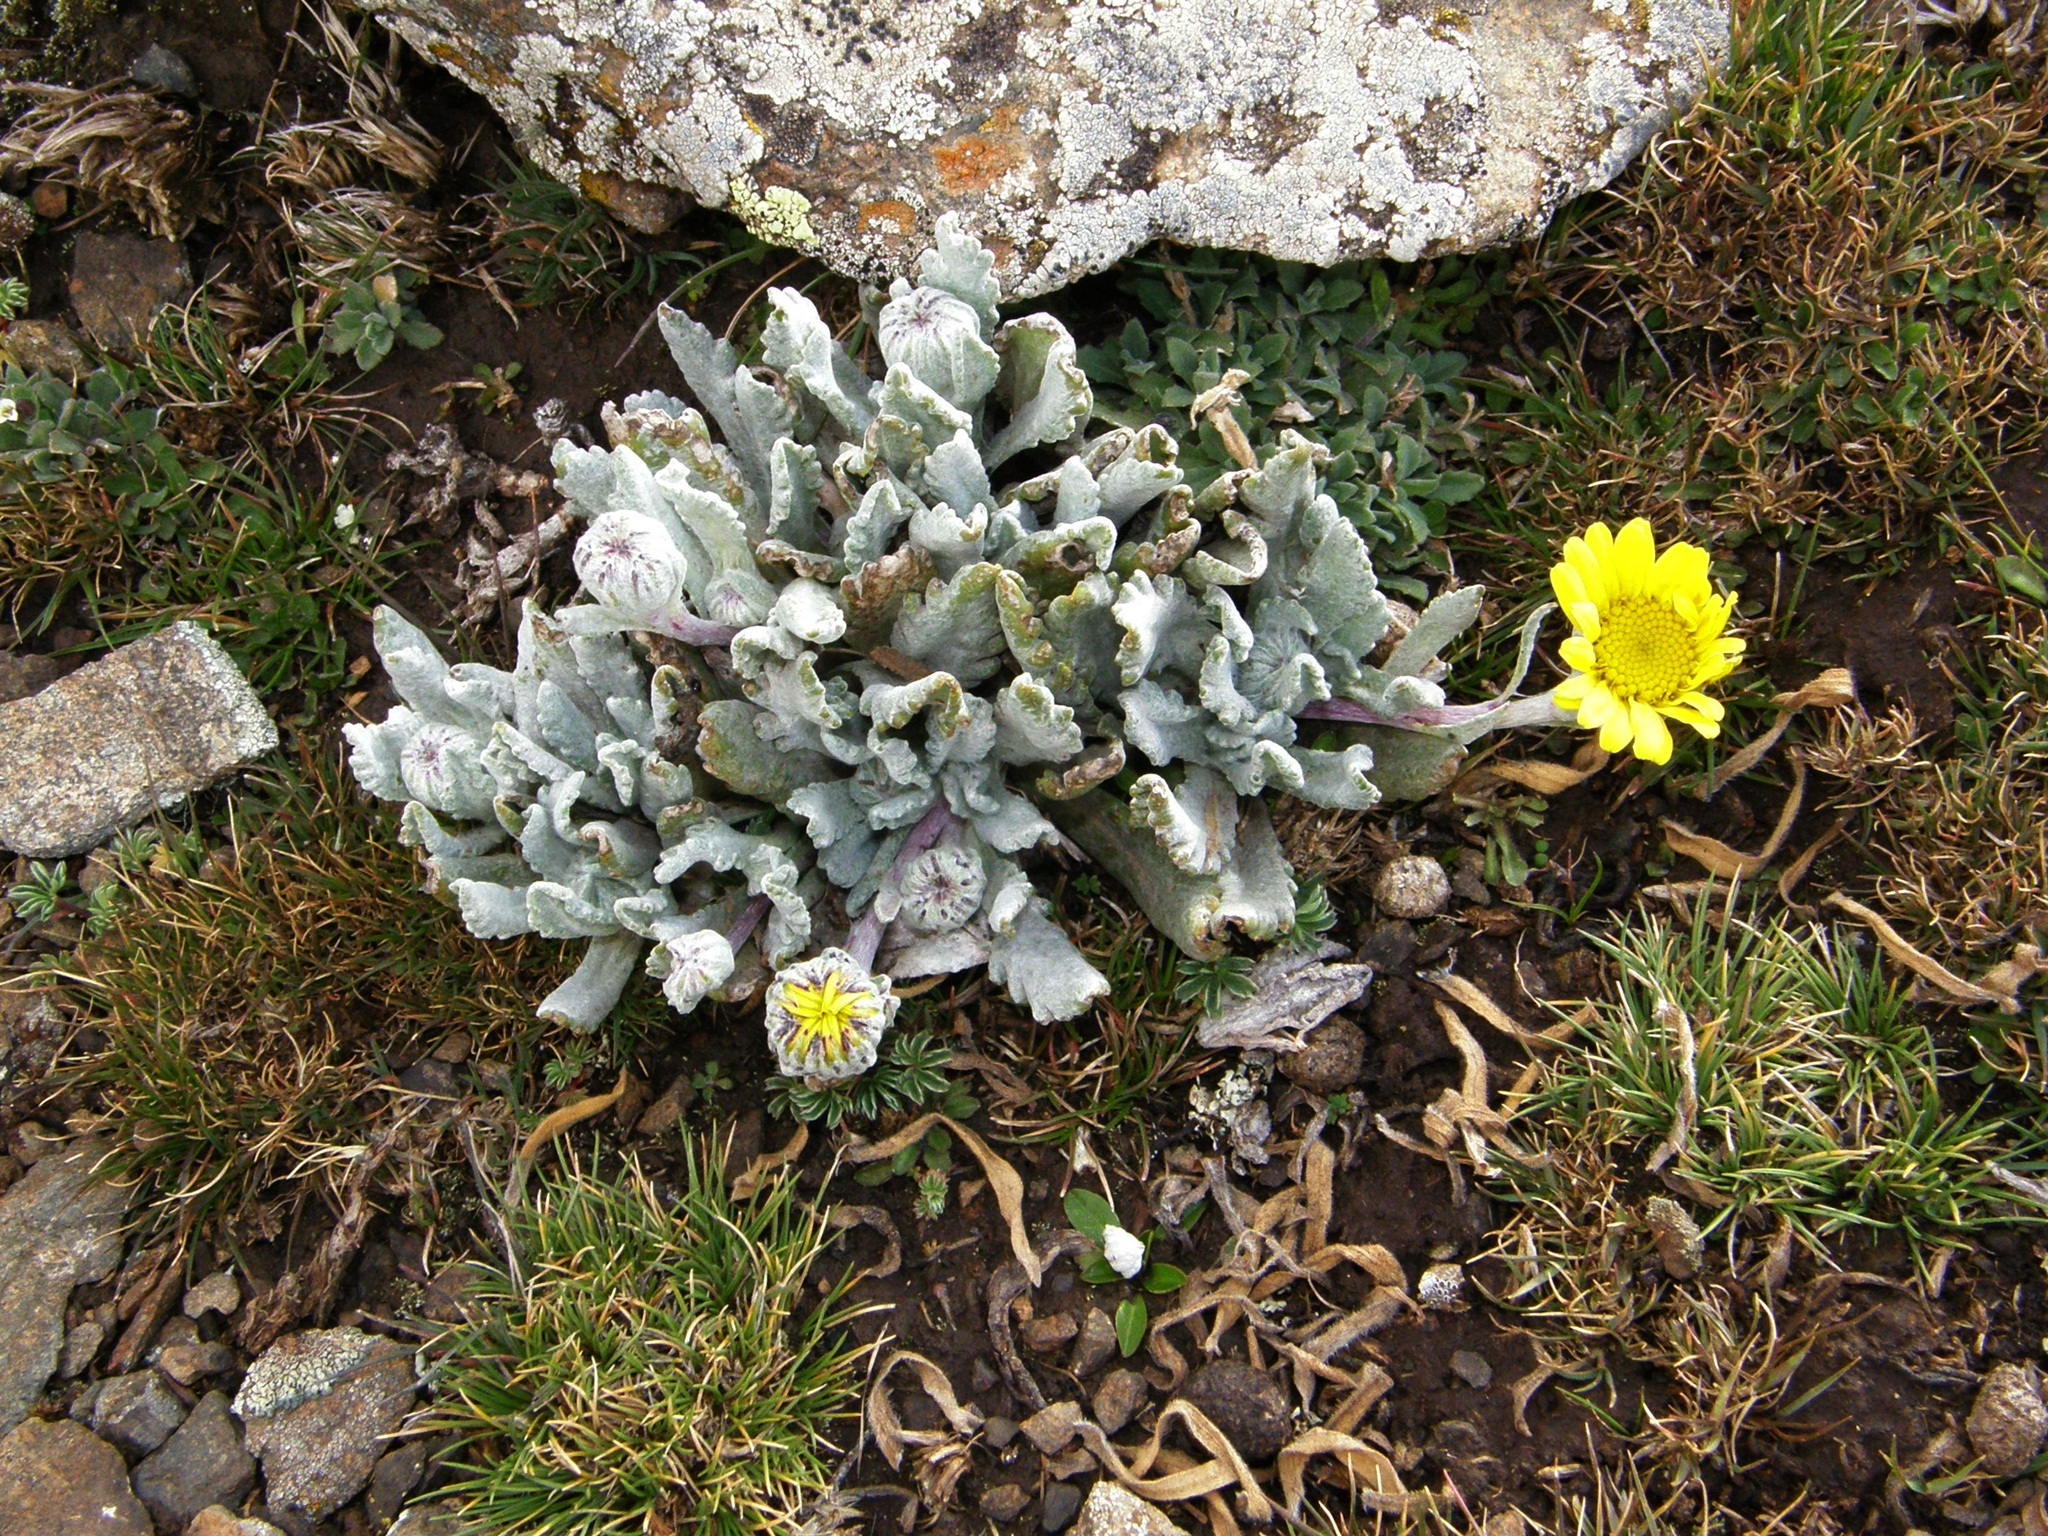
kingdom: Plantae
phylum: Tracheophyta
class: Magnoliopsida
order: Asterales
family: Asteraceae
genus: Senecio
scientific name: Senecio schultzii
